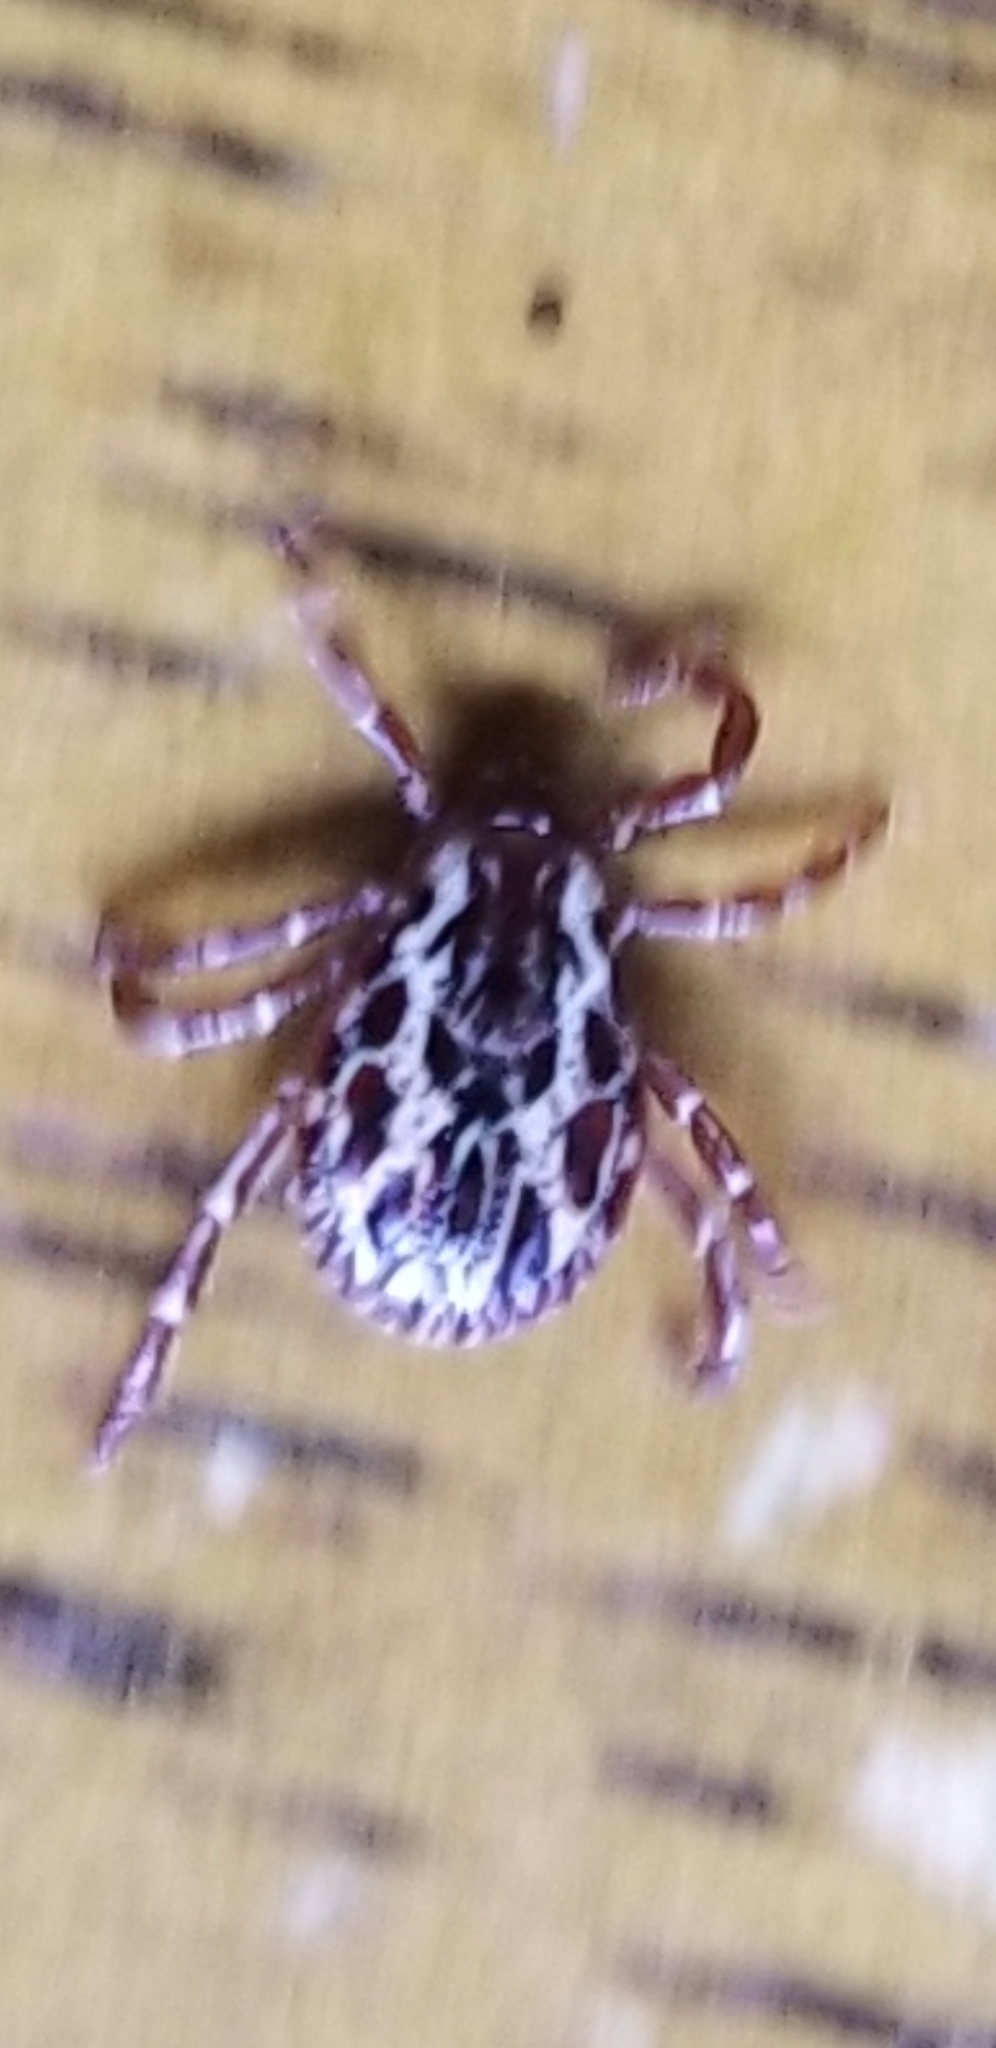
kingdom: Animalia
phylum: Arthropoda
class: Arachnida
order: Ixodida
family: Ixodidae
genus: Dermacentor
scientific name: Dermacentor variabilis
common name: American dog tick
